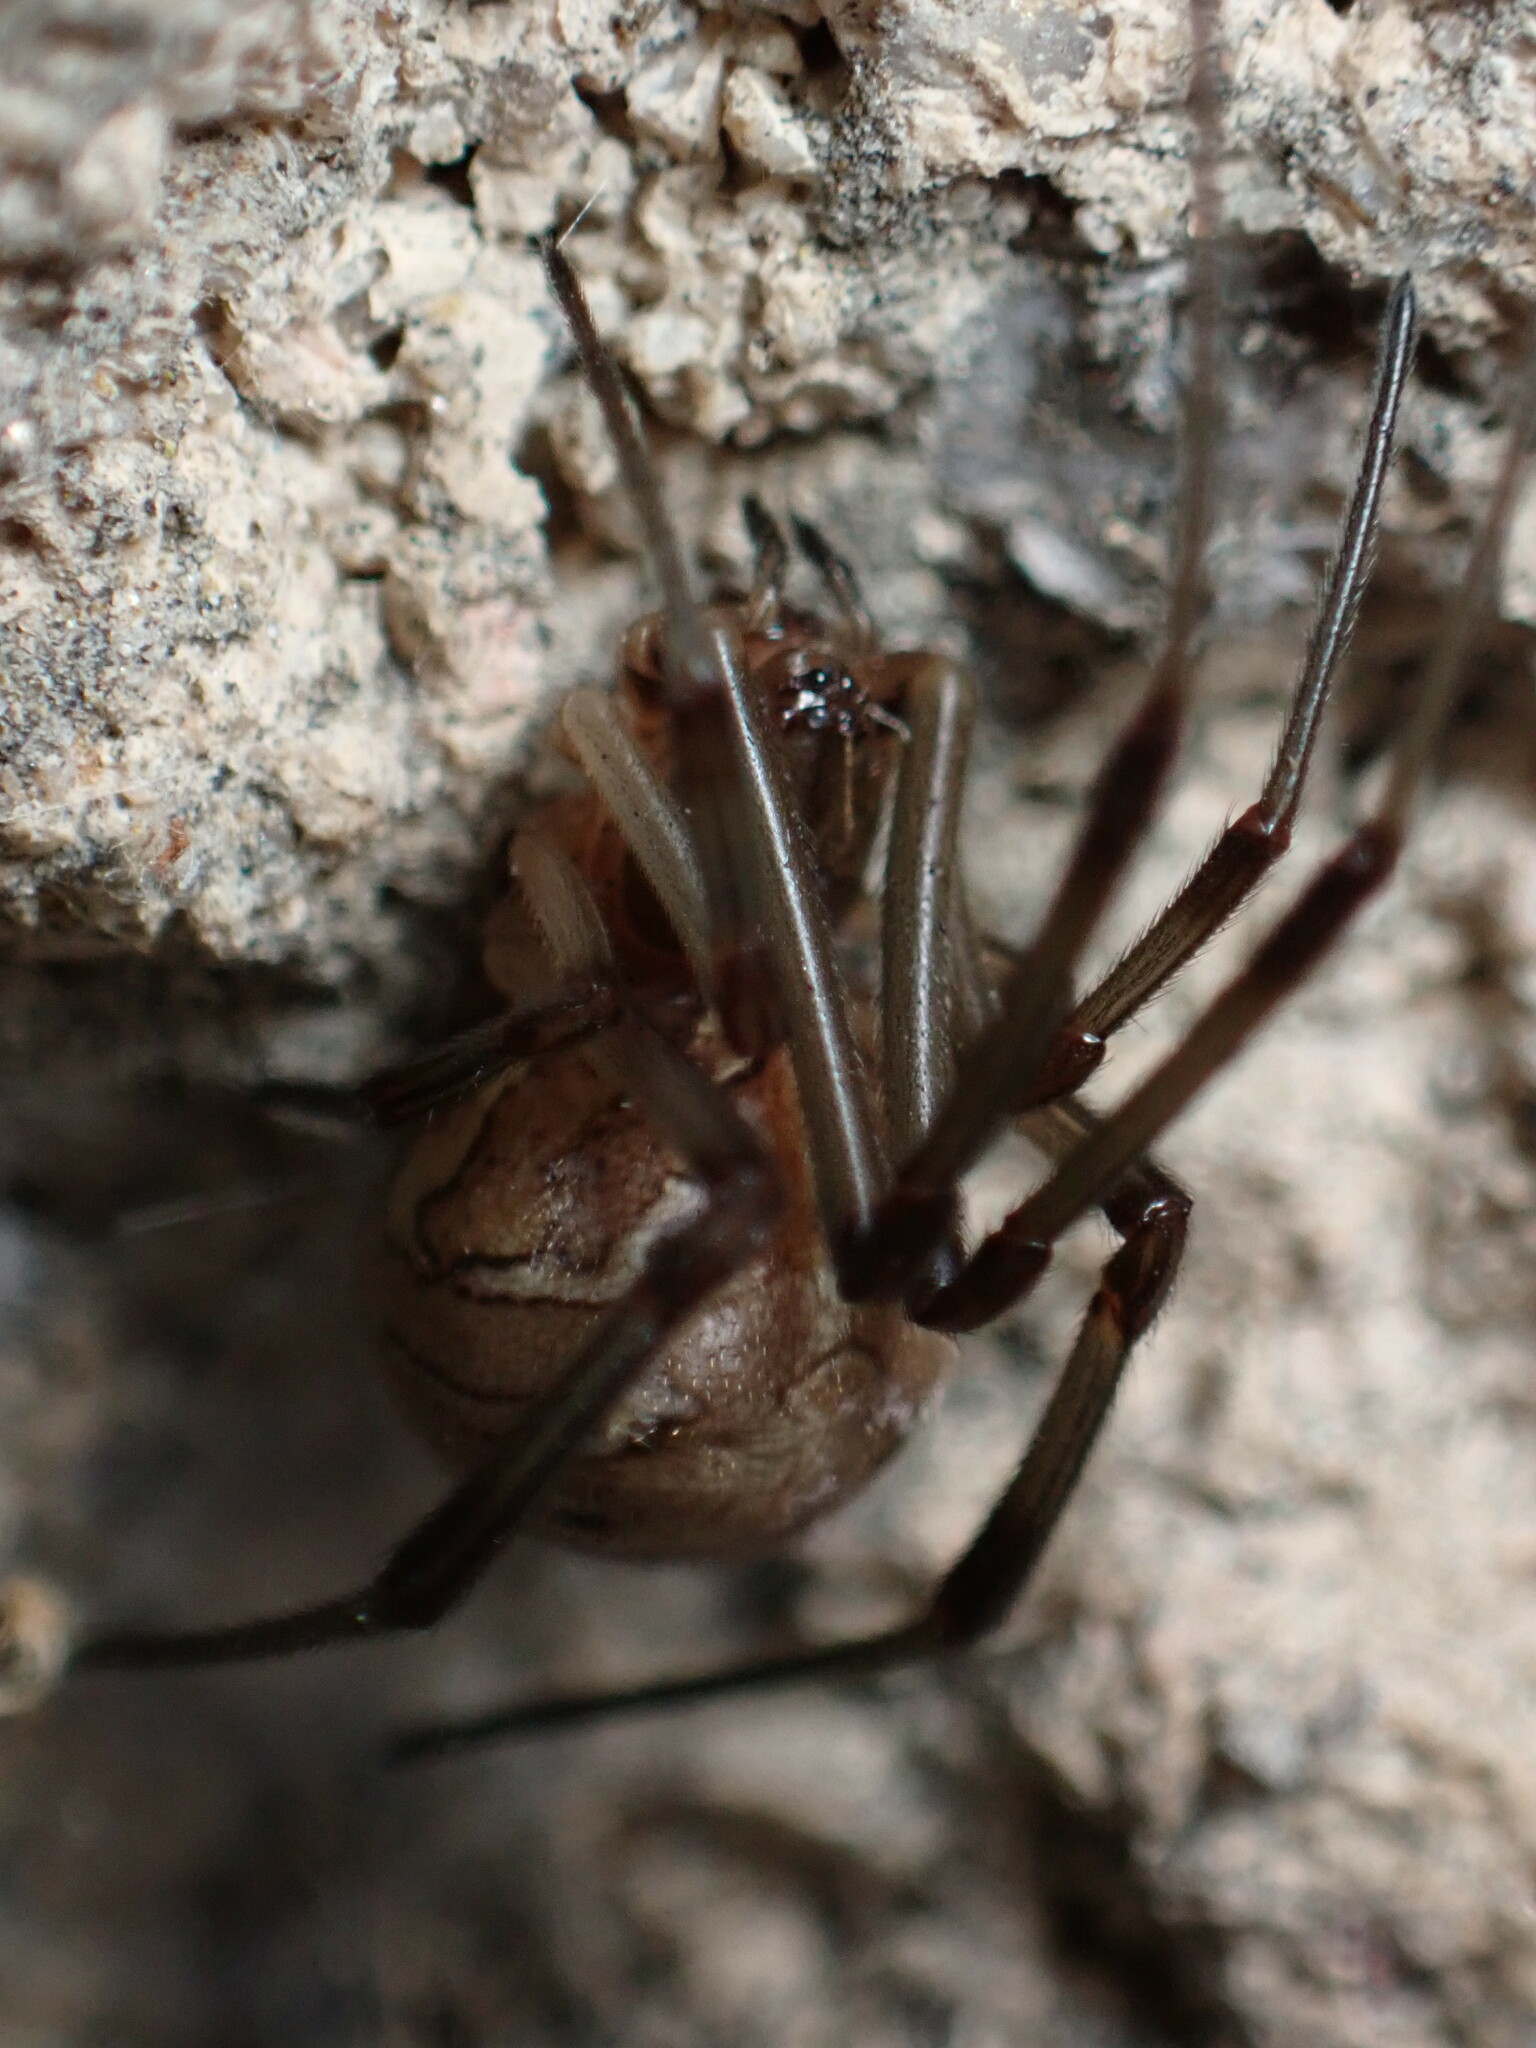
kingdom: Animalia
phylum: Arthropoda
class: Arachnida
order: Araneae
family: Theridiidae
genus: Latrodectus
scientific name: Latrodectus geometricus
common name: Brown widow spider
